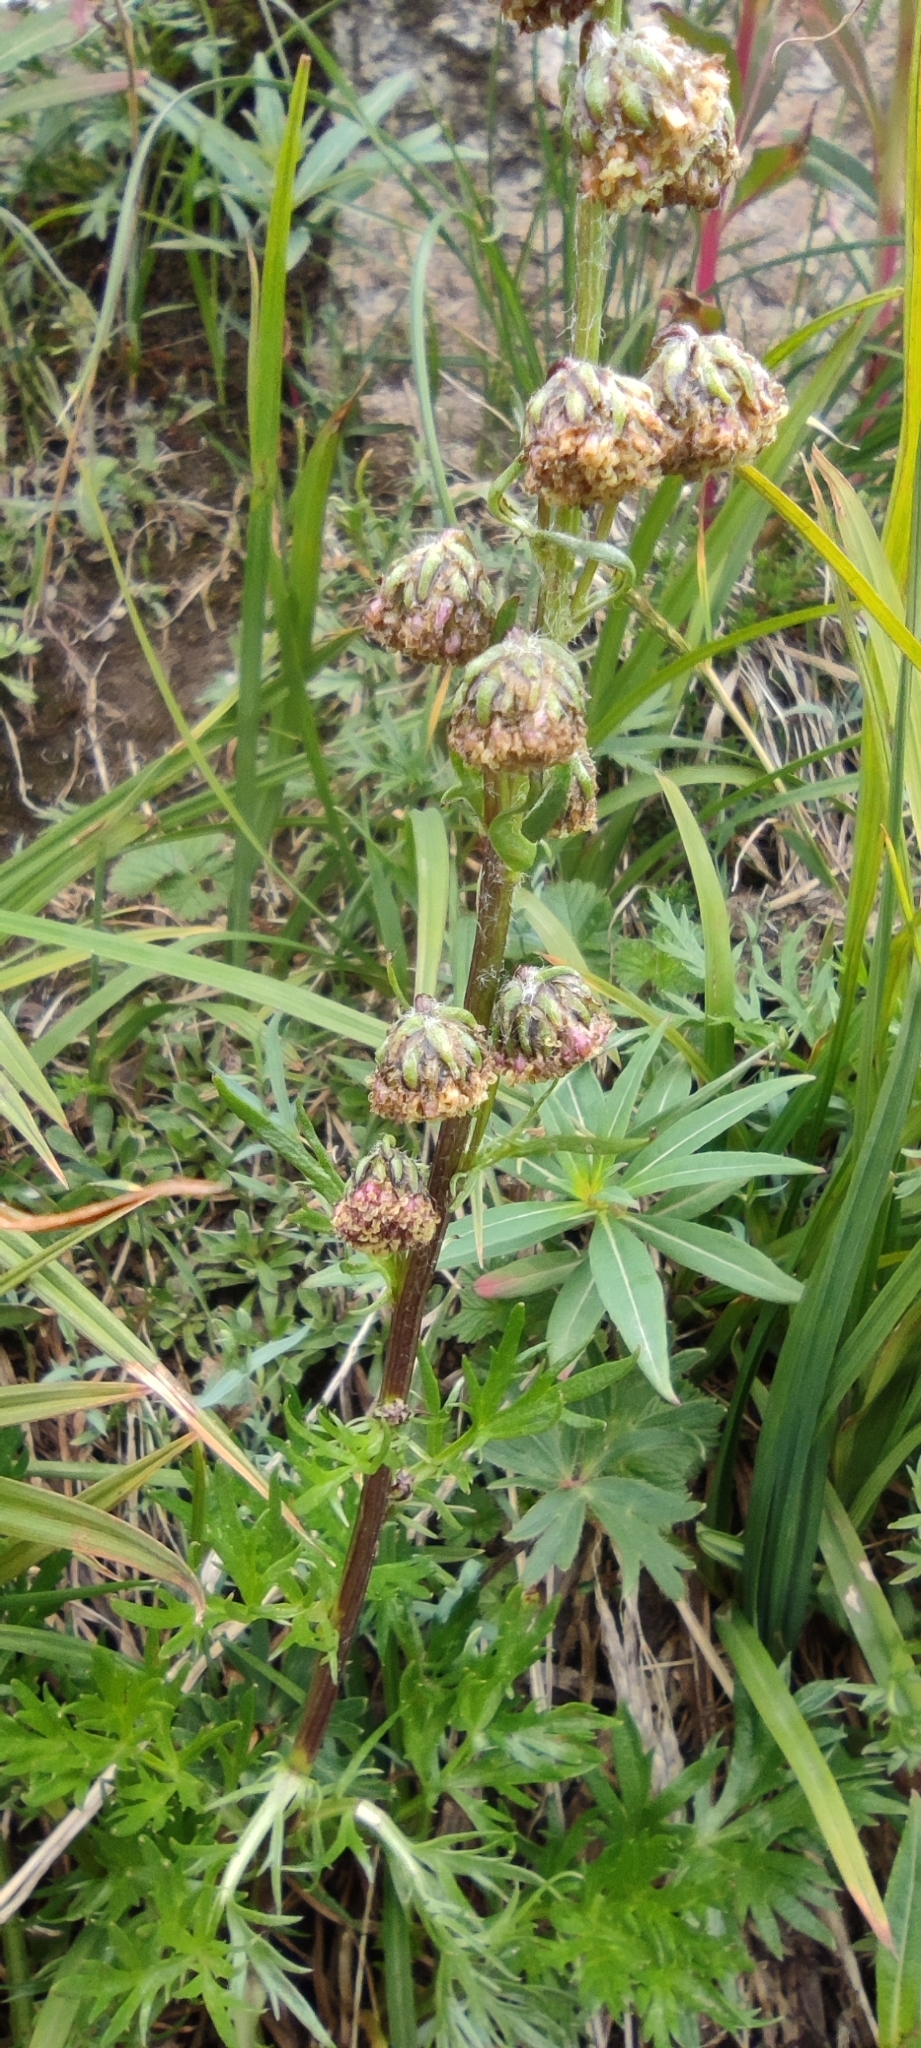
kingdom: Plantae
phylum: Tracheophyta
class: Magnoliopsida
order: Asterales
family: Asteraceae
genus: Artemisia
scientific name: Artemisia arctica
